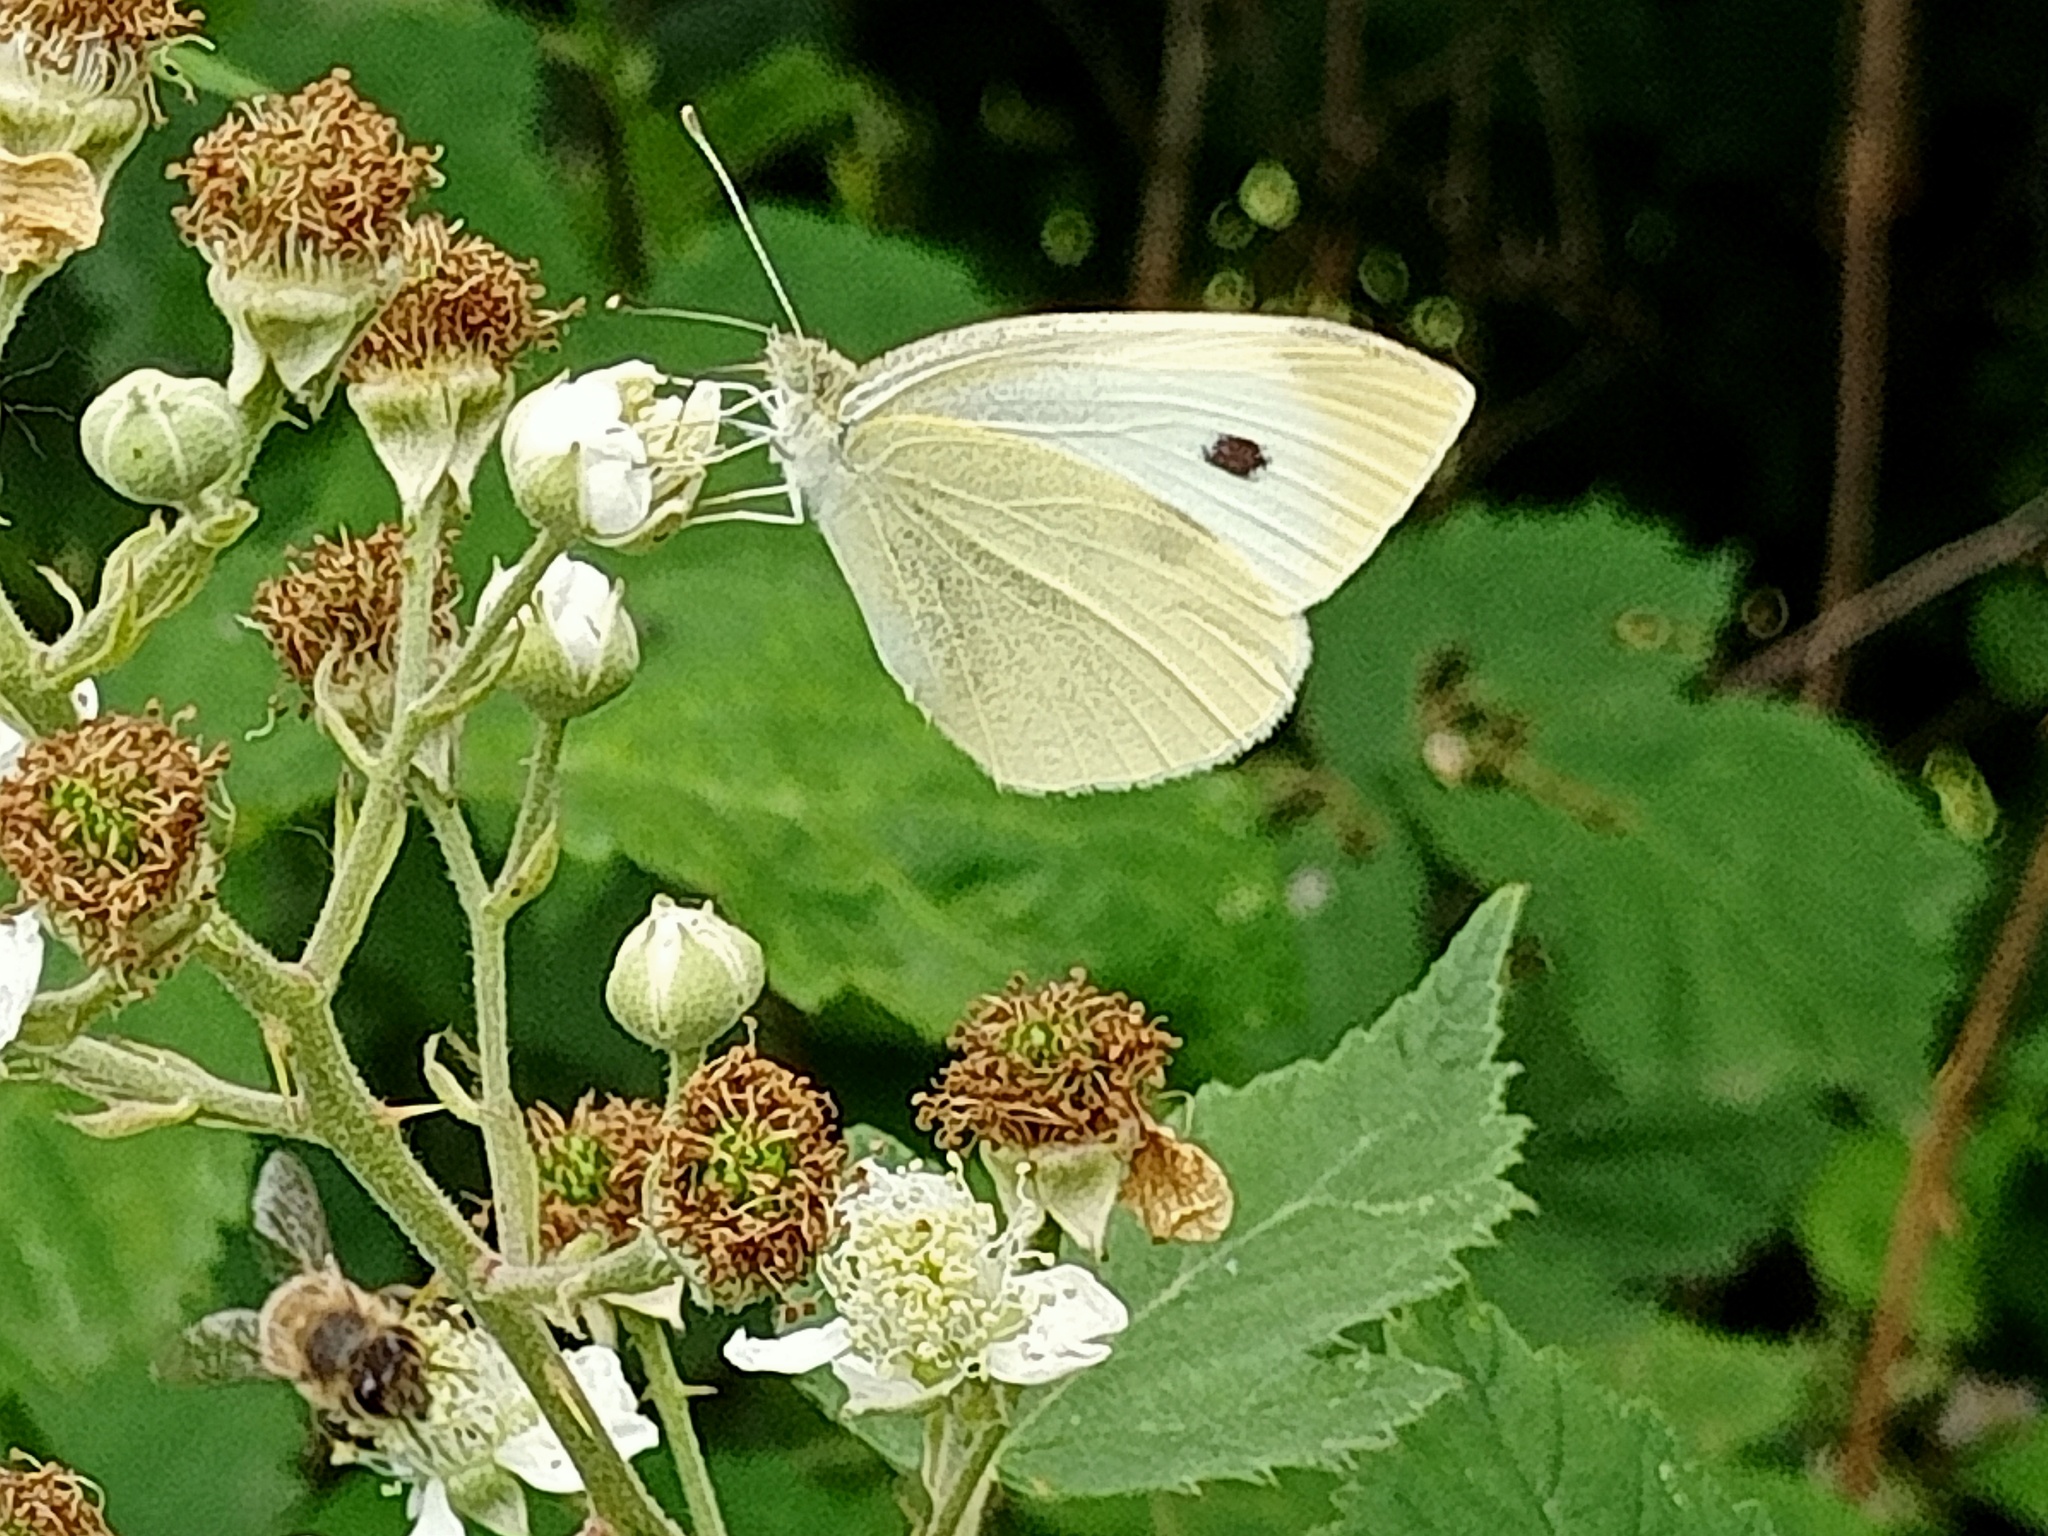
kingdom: Animalia
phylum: Arthropoda
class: Insecta
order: Lepidoptera
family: Pieridae
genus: Pieris
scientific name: Pieris rapae
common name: Small white
